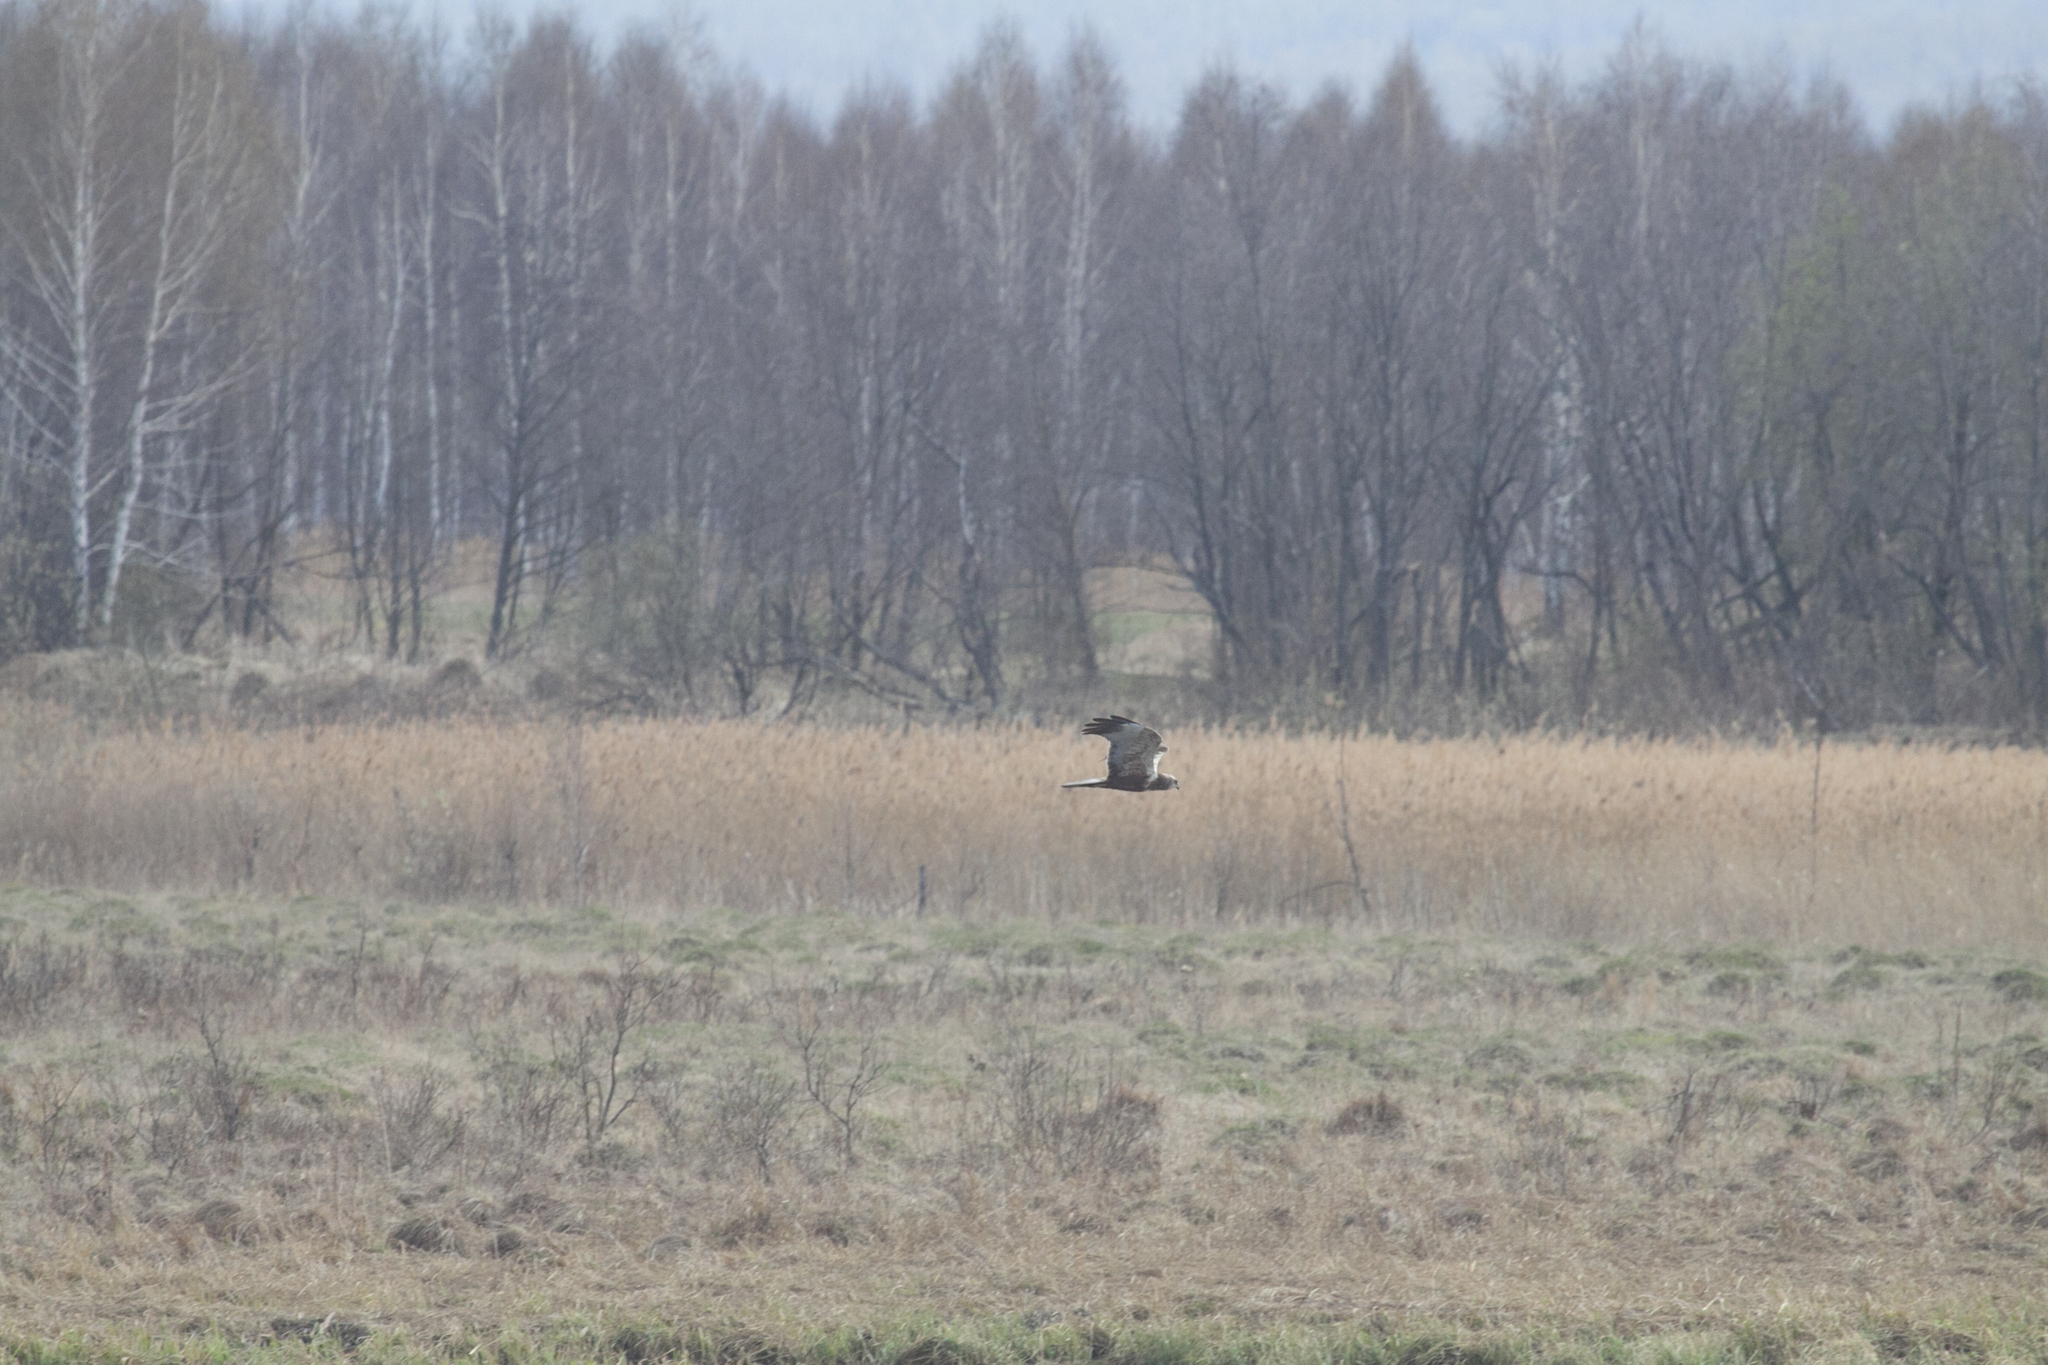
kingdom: Animalia
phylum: Chordata
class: Aves
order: Accipitriformes
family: Accipitridae
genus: Circus
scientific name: Circus aeruginosus
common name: Western marsh harrier
